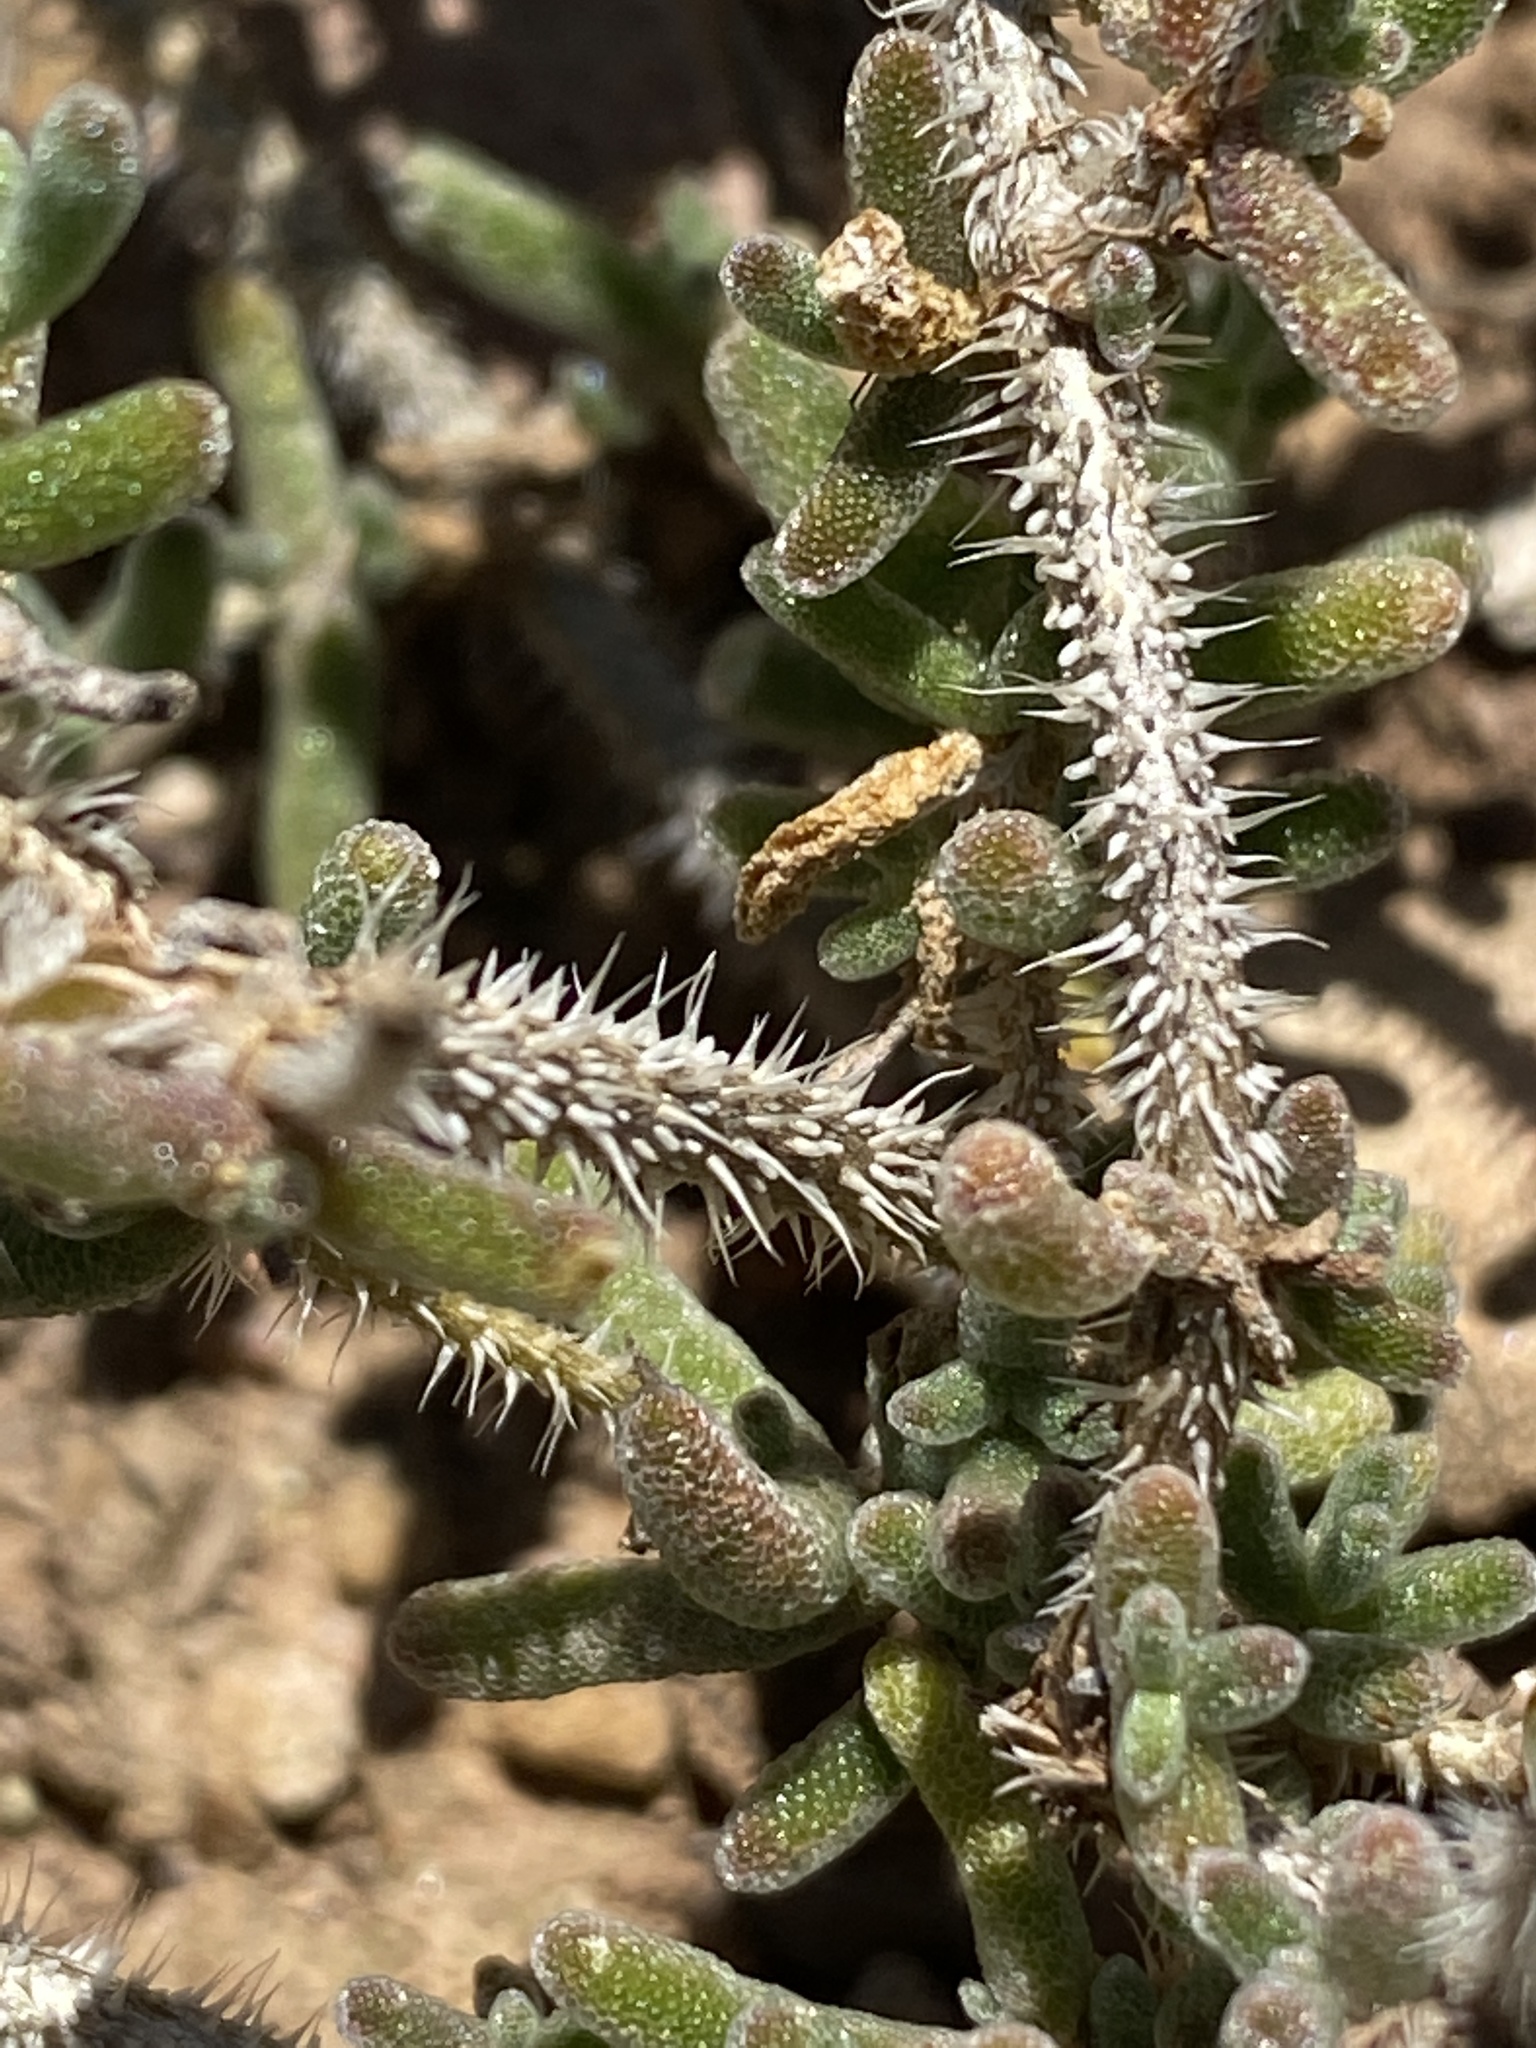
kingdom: Plantae
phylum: Tracheophyta
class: Magnoliopsida
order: Caryophyllales
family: Aizoaceae
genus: Drosanthemum
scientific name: Drosanthemum hispidum
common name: Hairy dewflower
